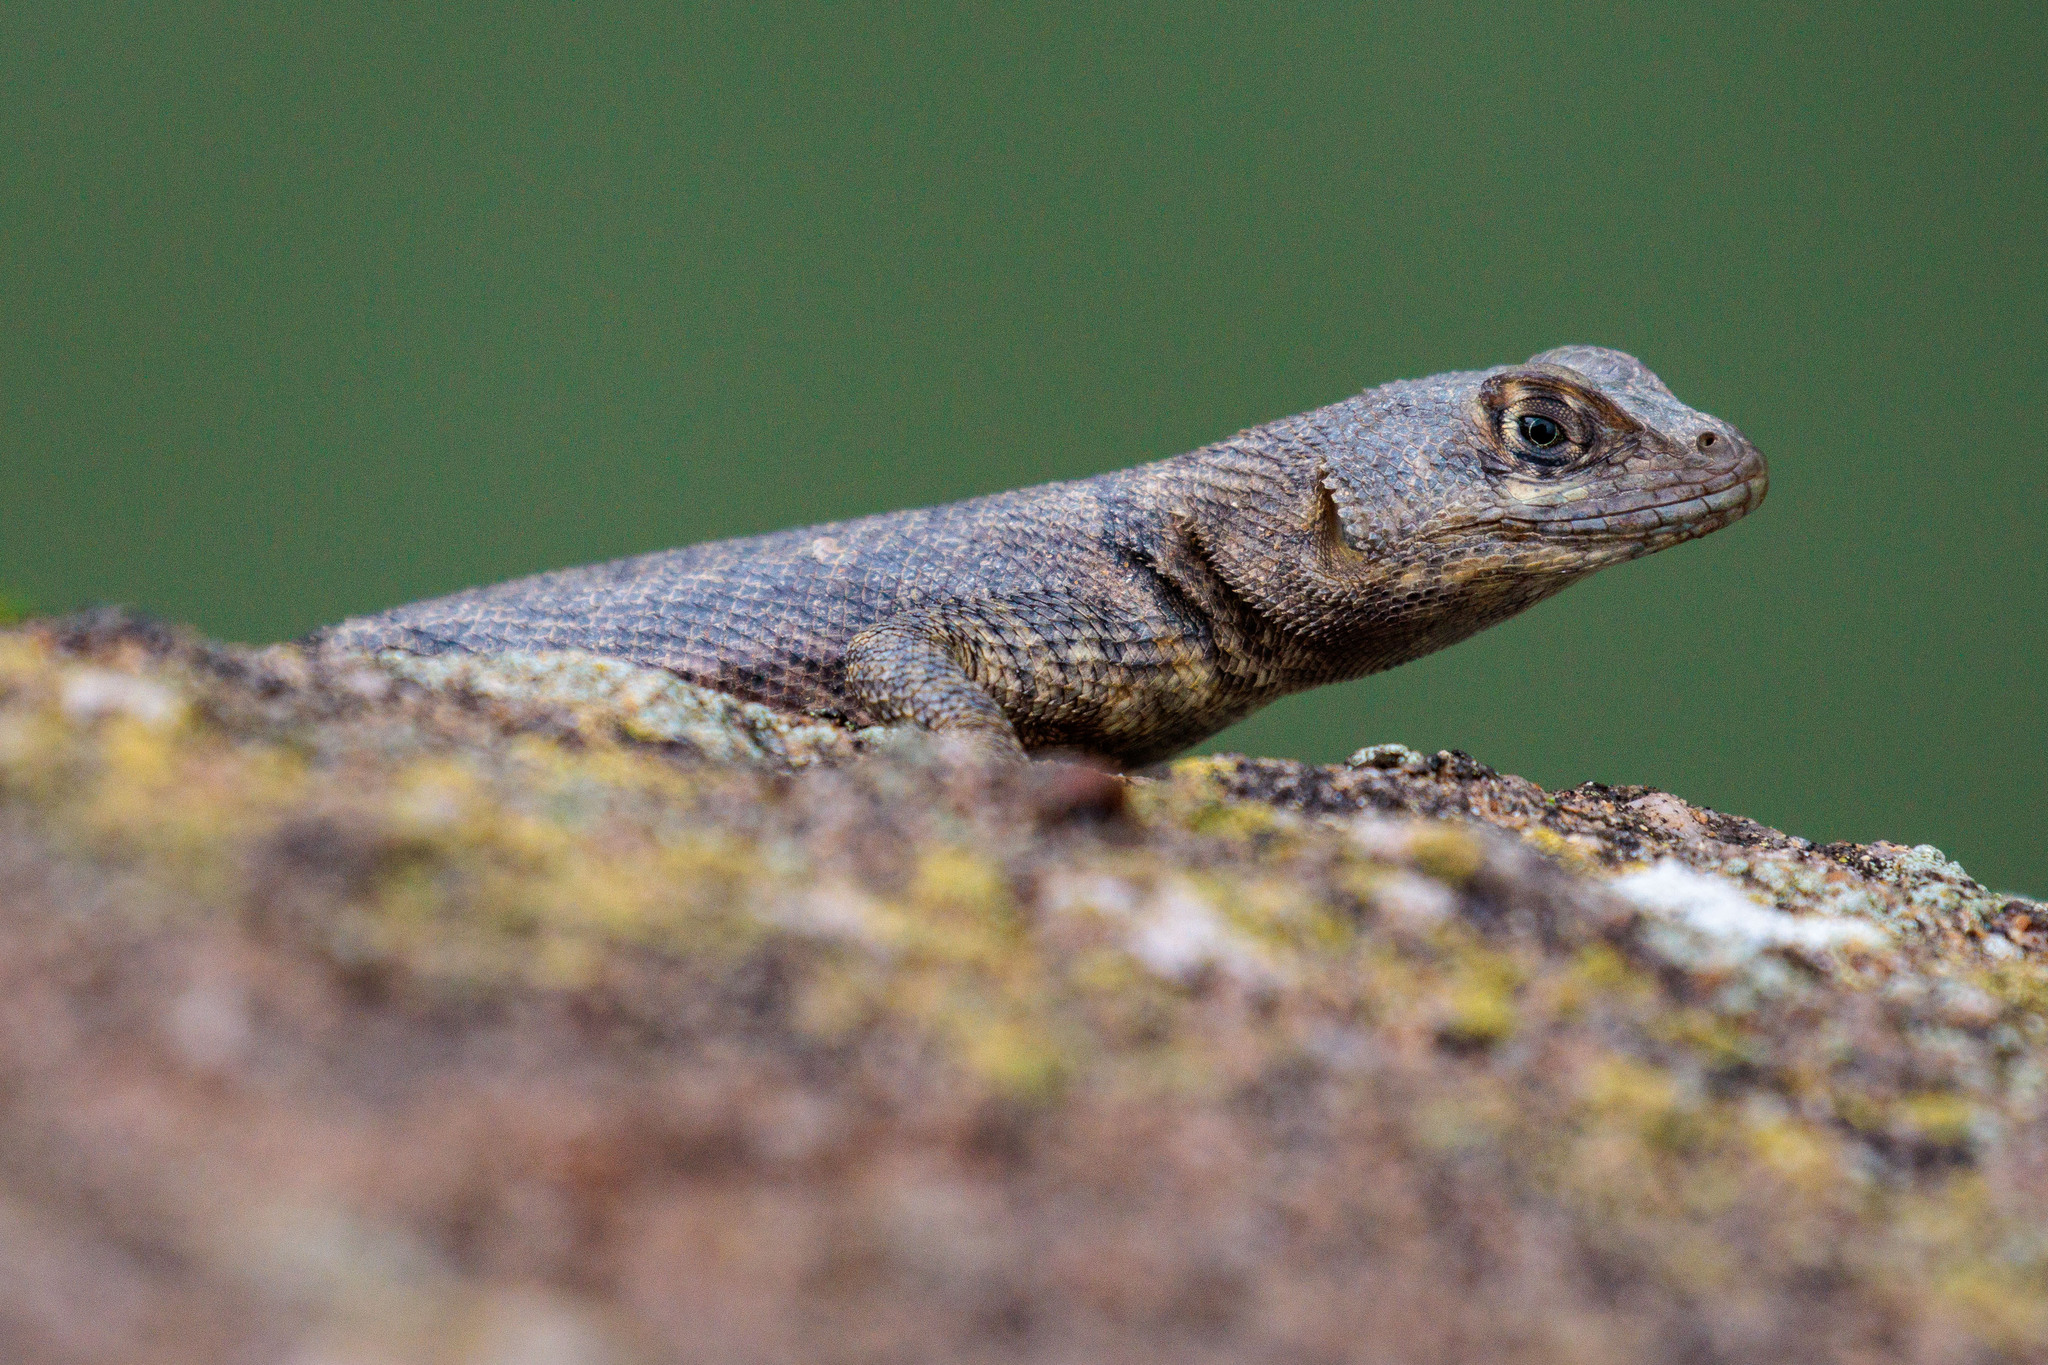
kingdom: Animalia
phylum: Chordata
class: Squamata
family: Tropiduridae
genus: Tropidurus
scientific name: Tropidurus hispidus
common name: Peters' lava lizard
